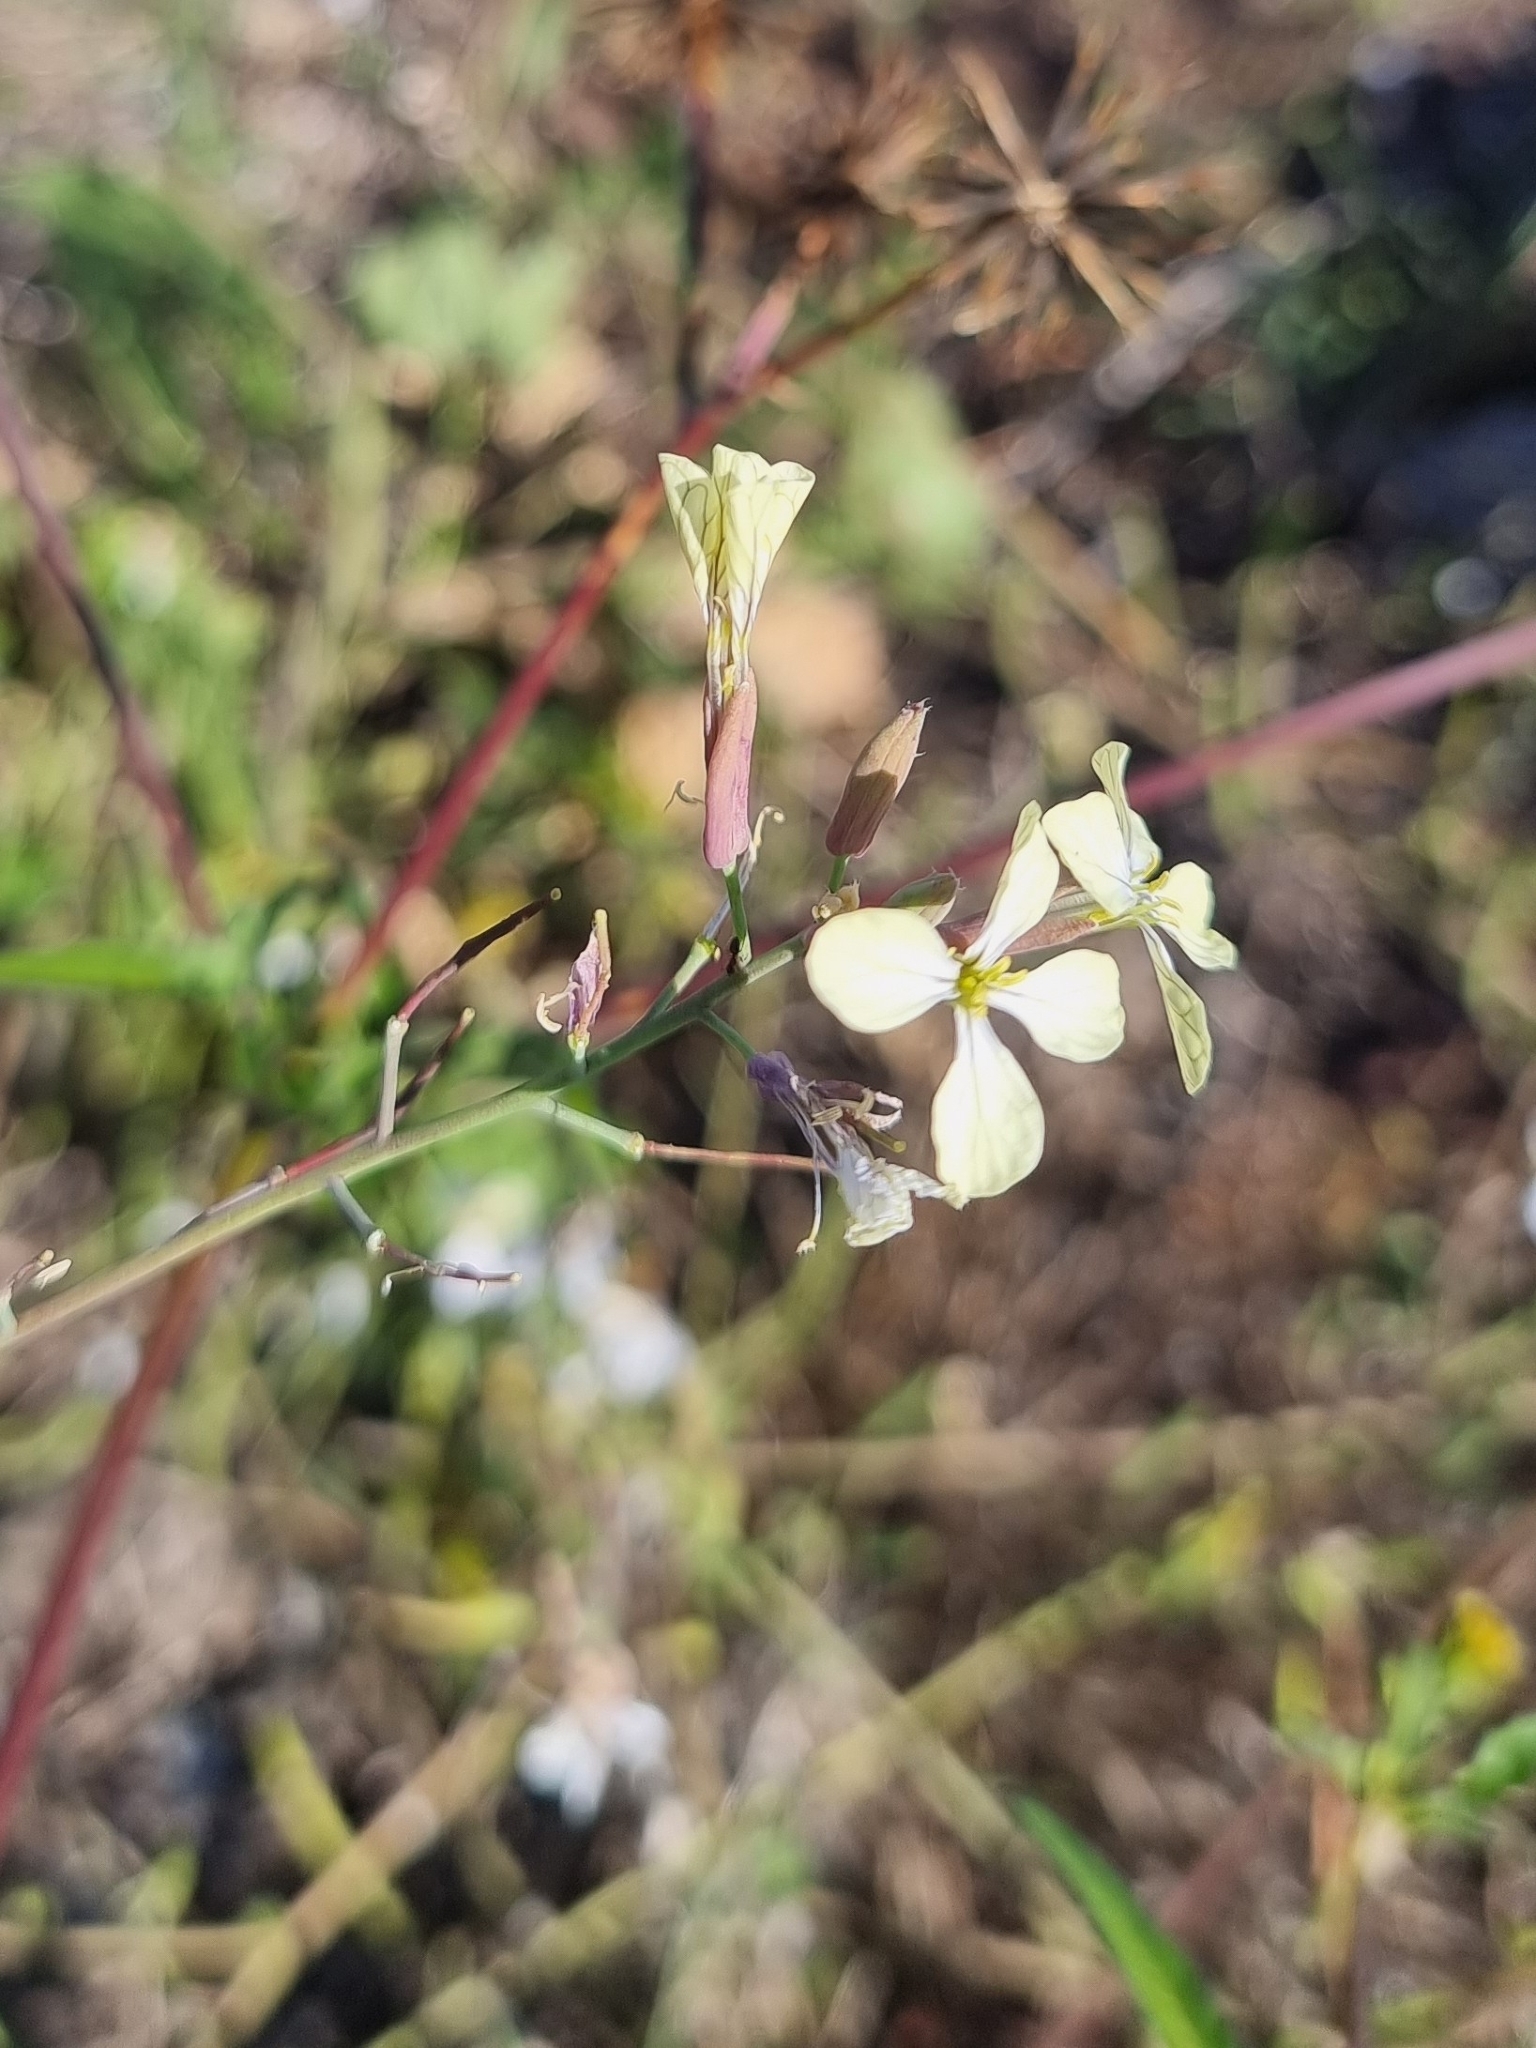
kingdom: Plantae
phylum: Tracheophyta
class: Magnoliopsida
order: Brassicales
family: Brassicaceae
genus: Raphanus
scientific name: Raphanus raphanistrum
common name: Wild radish
